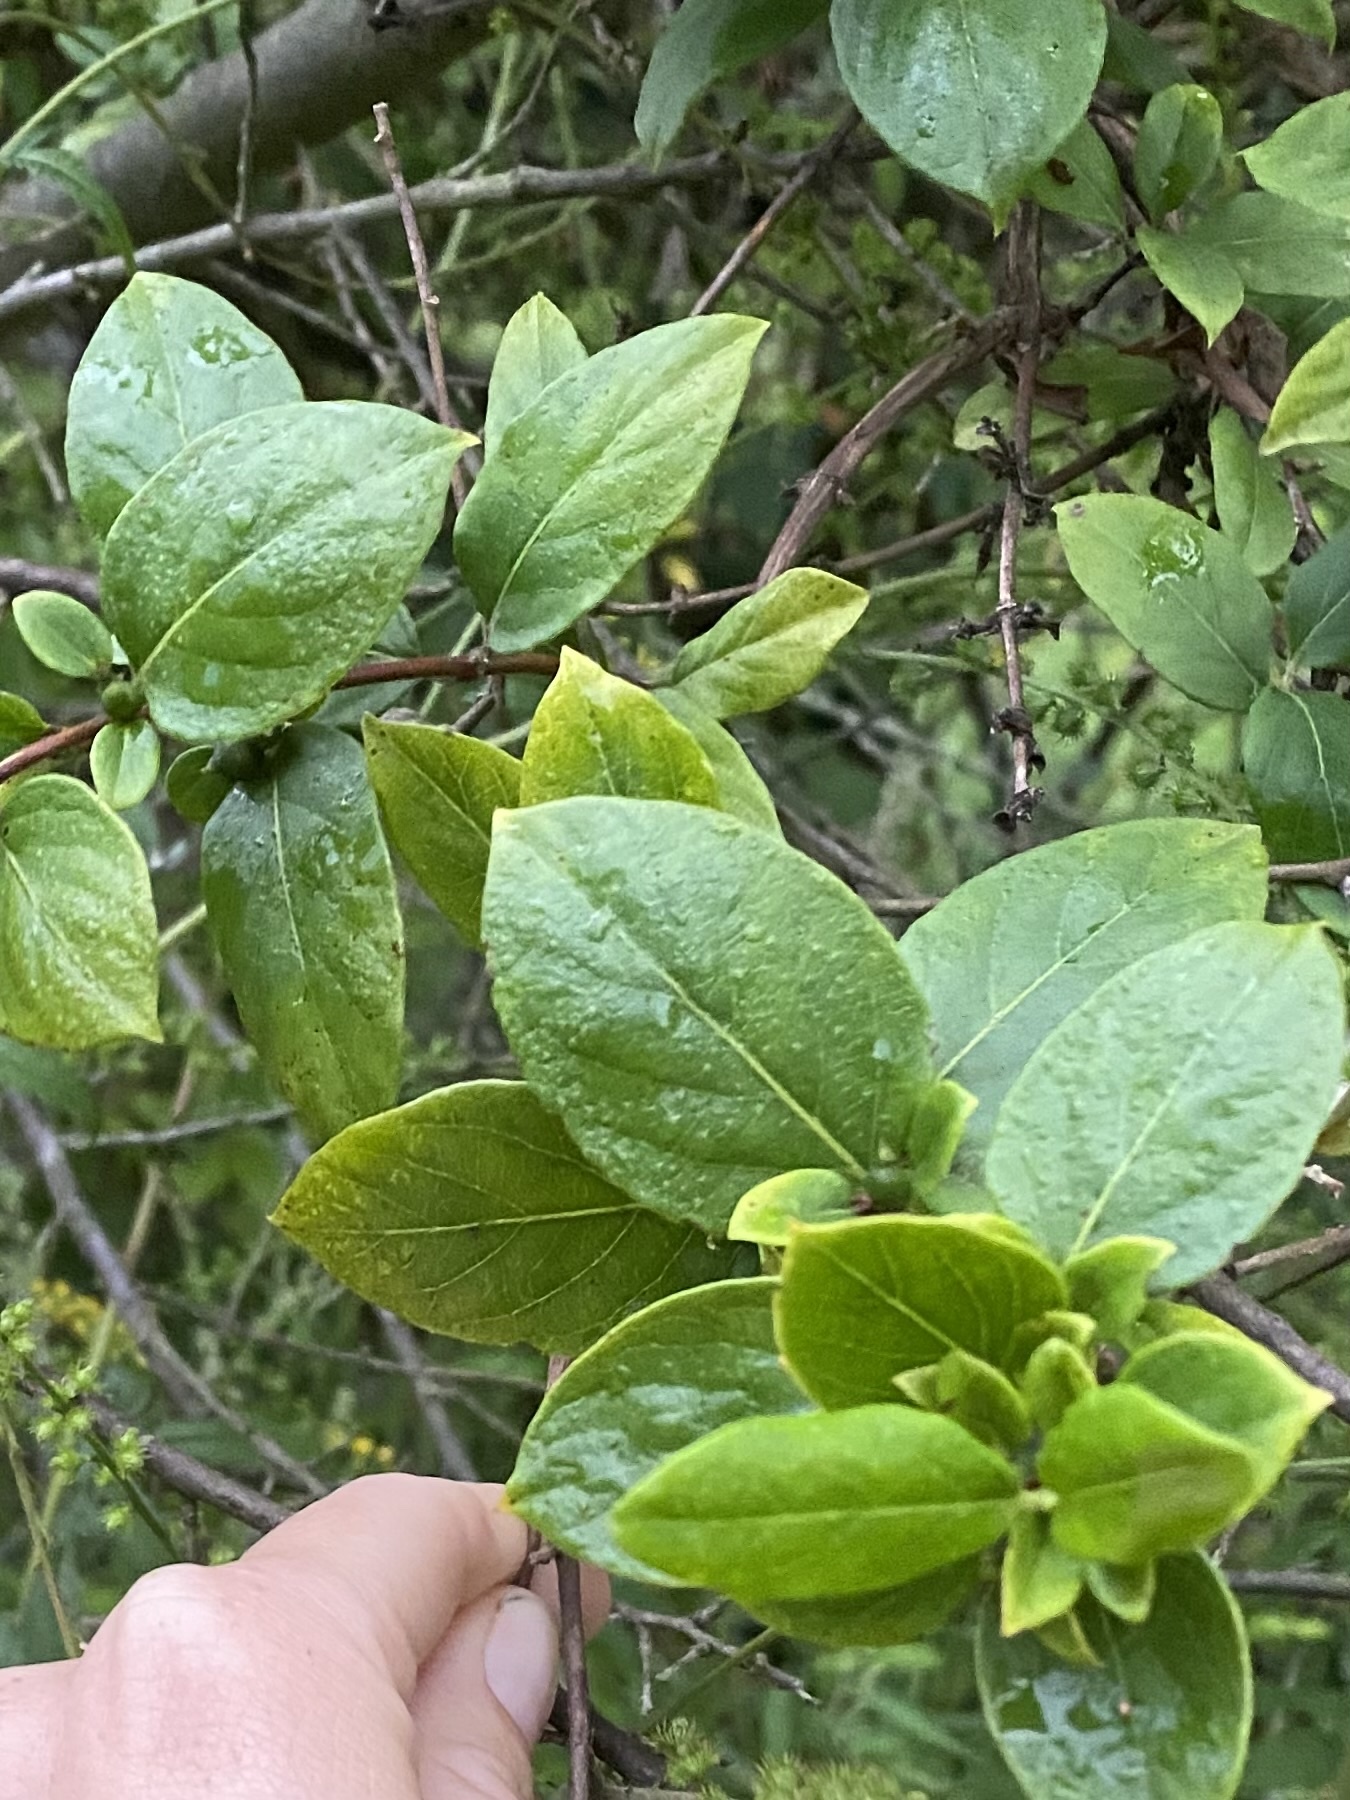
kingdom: Plantae
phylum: Tracheophyta
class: Magnoliopsida
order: Dipsacales
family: Caprifoliaceae
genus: Lonicera
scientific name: Lonicera japonica
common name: Japanese honeysuckle
